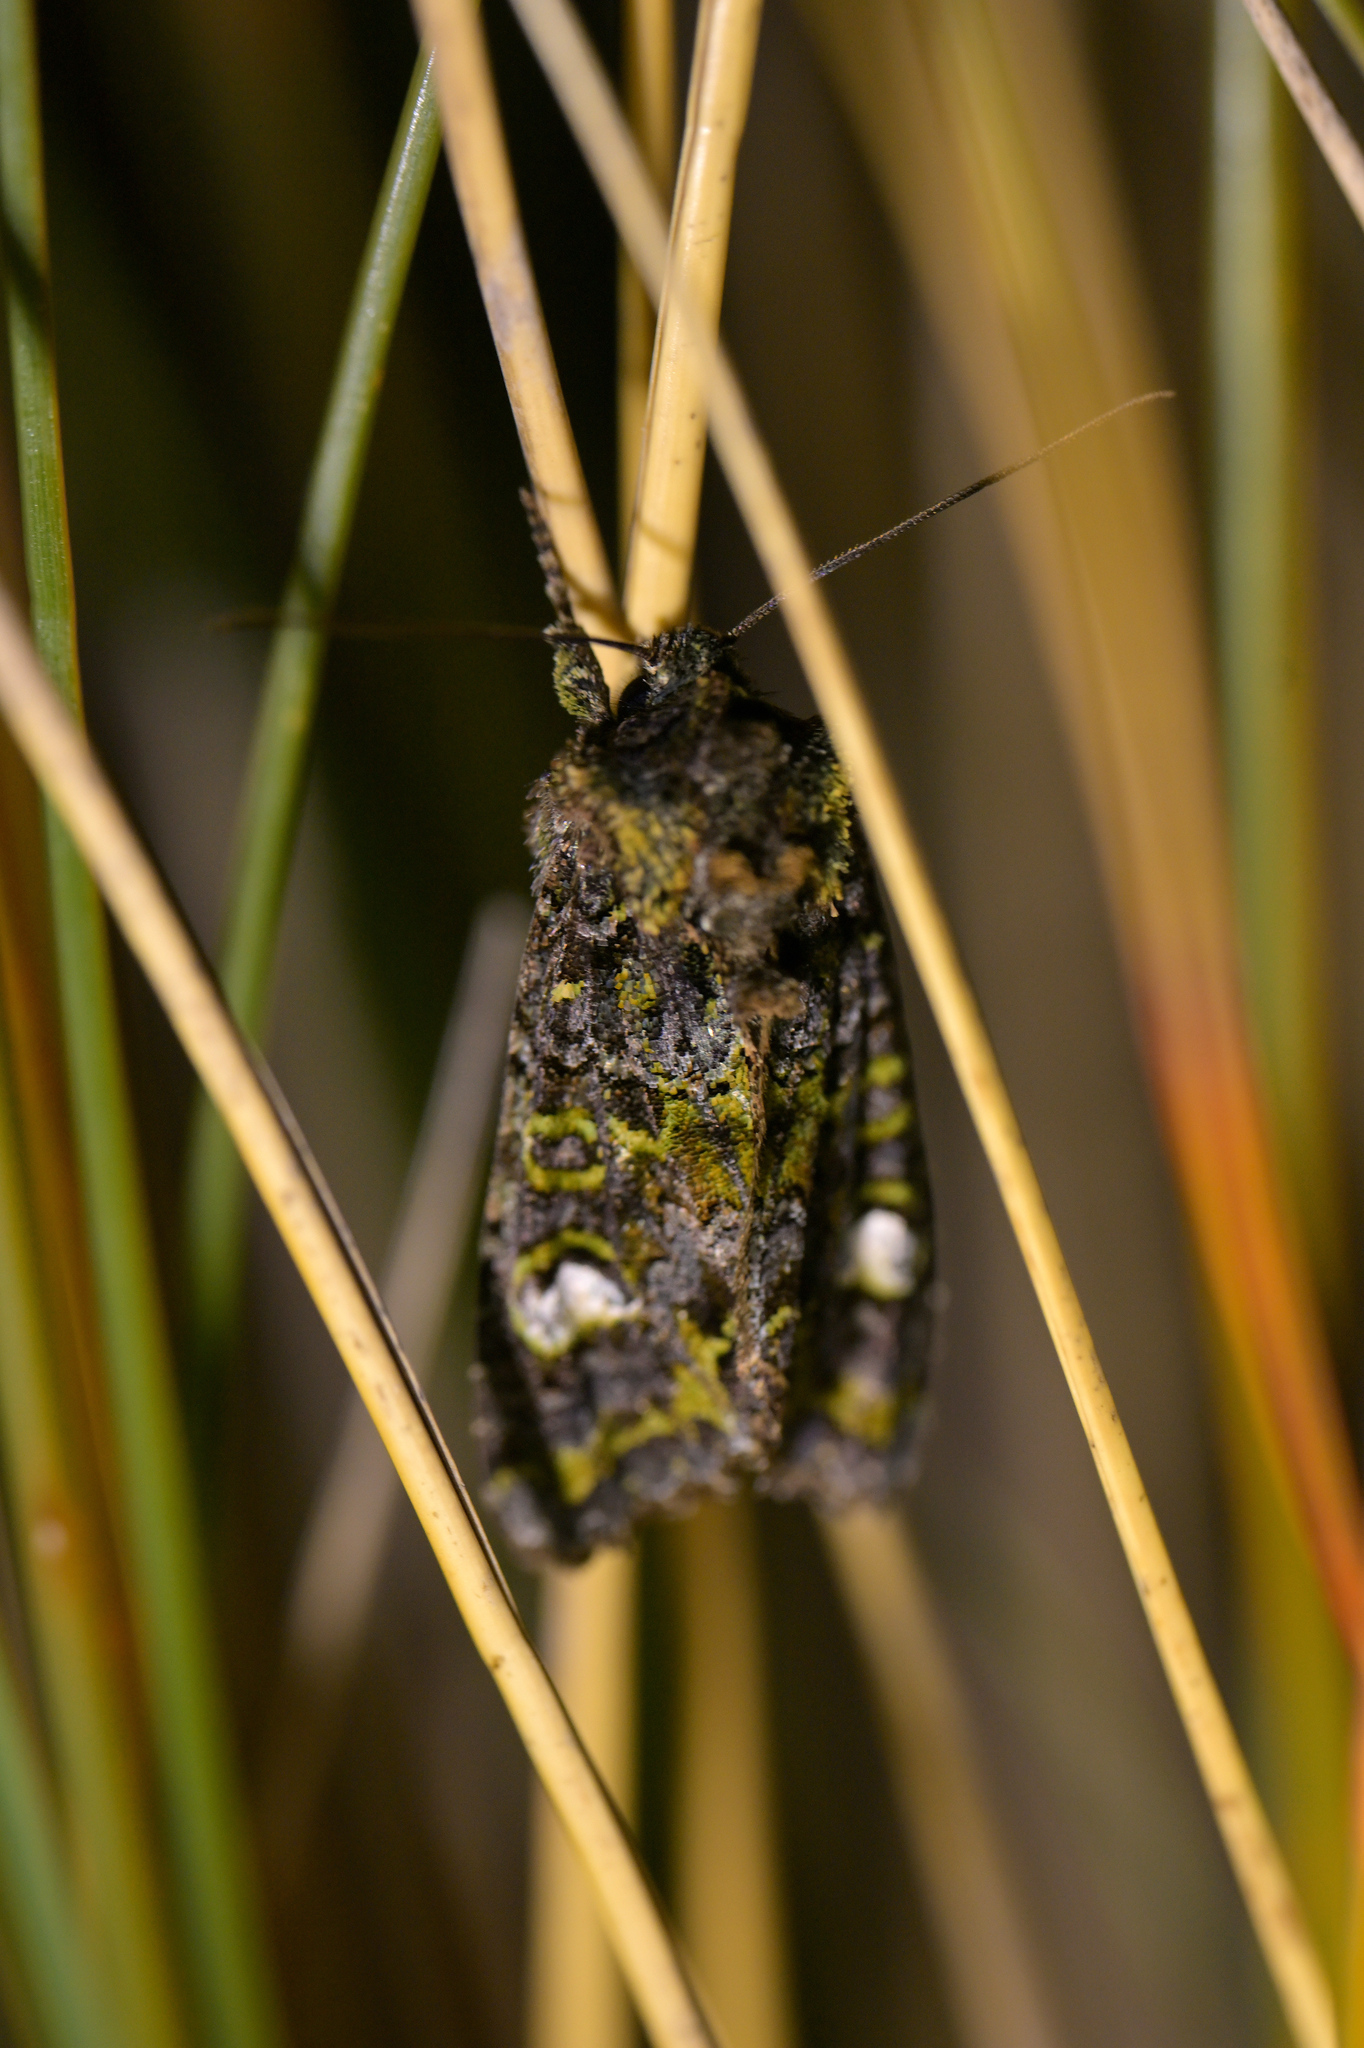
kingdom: Animalia
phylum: Arthropoda
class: Insecta
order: Lepidoptera
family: Noctuidae
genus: Ichneutica
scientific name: Ichneutica
